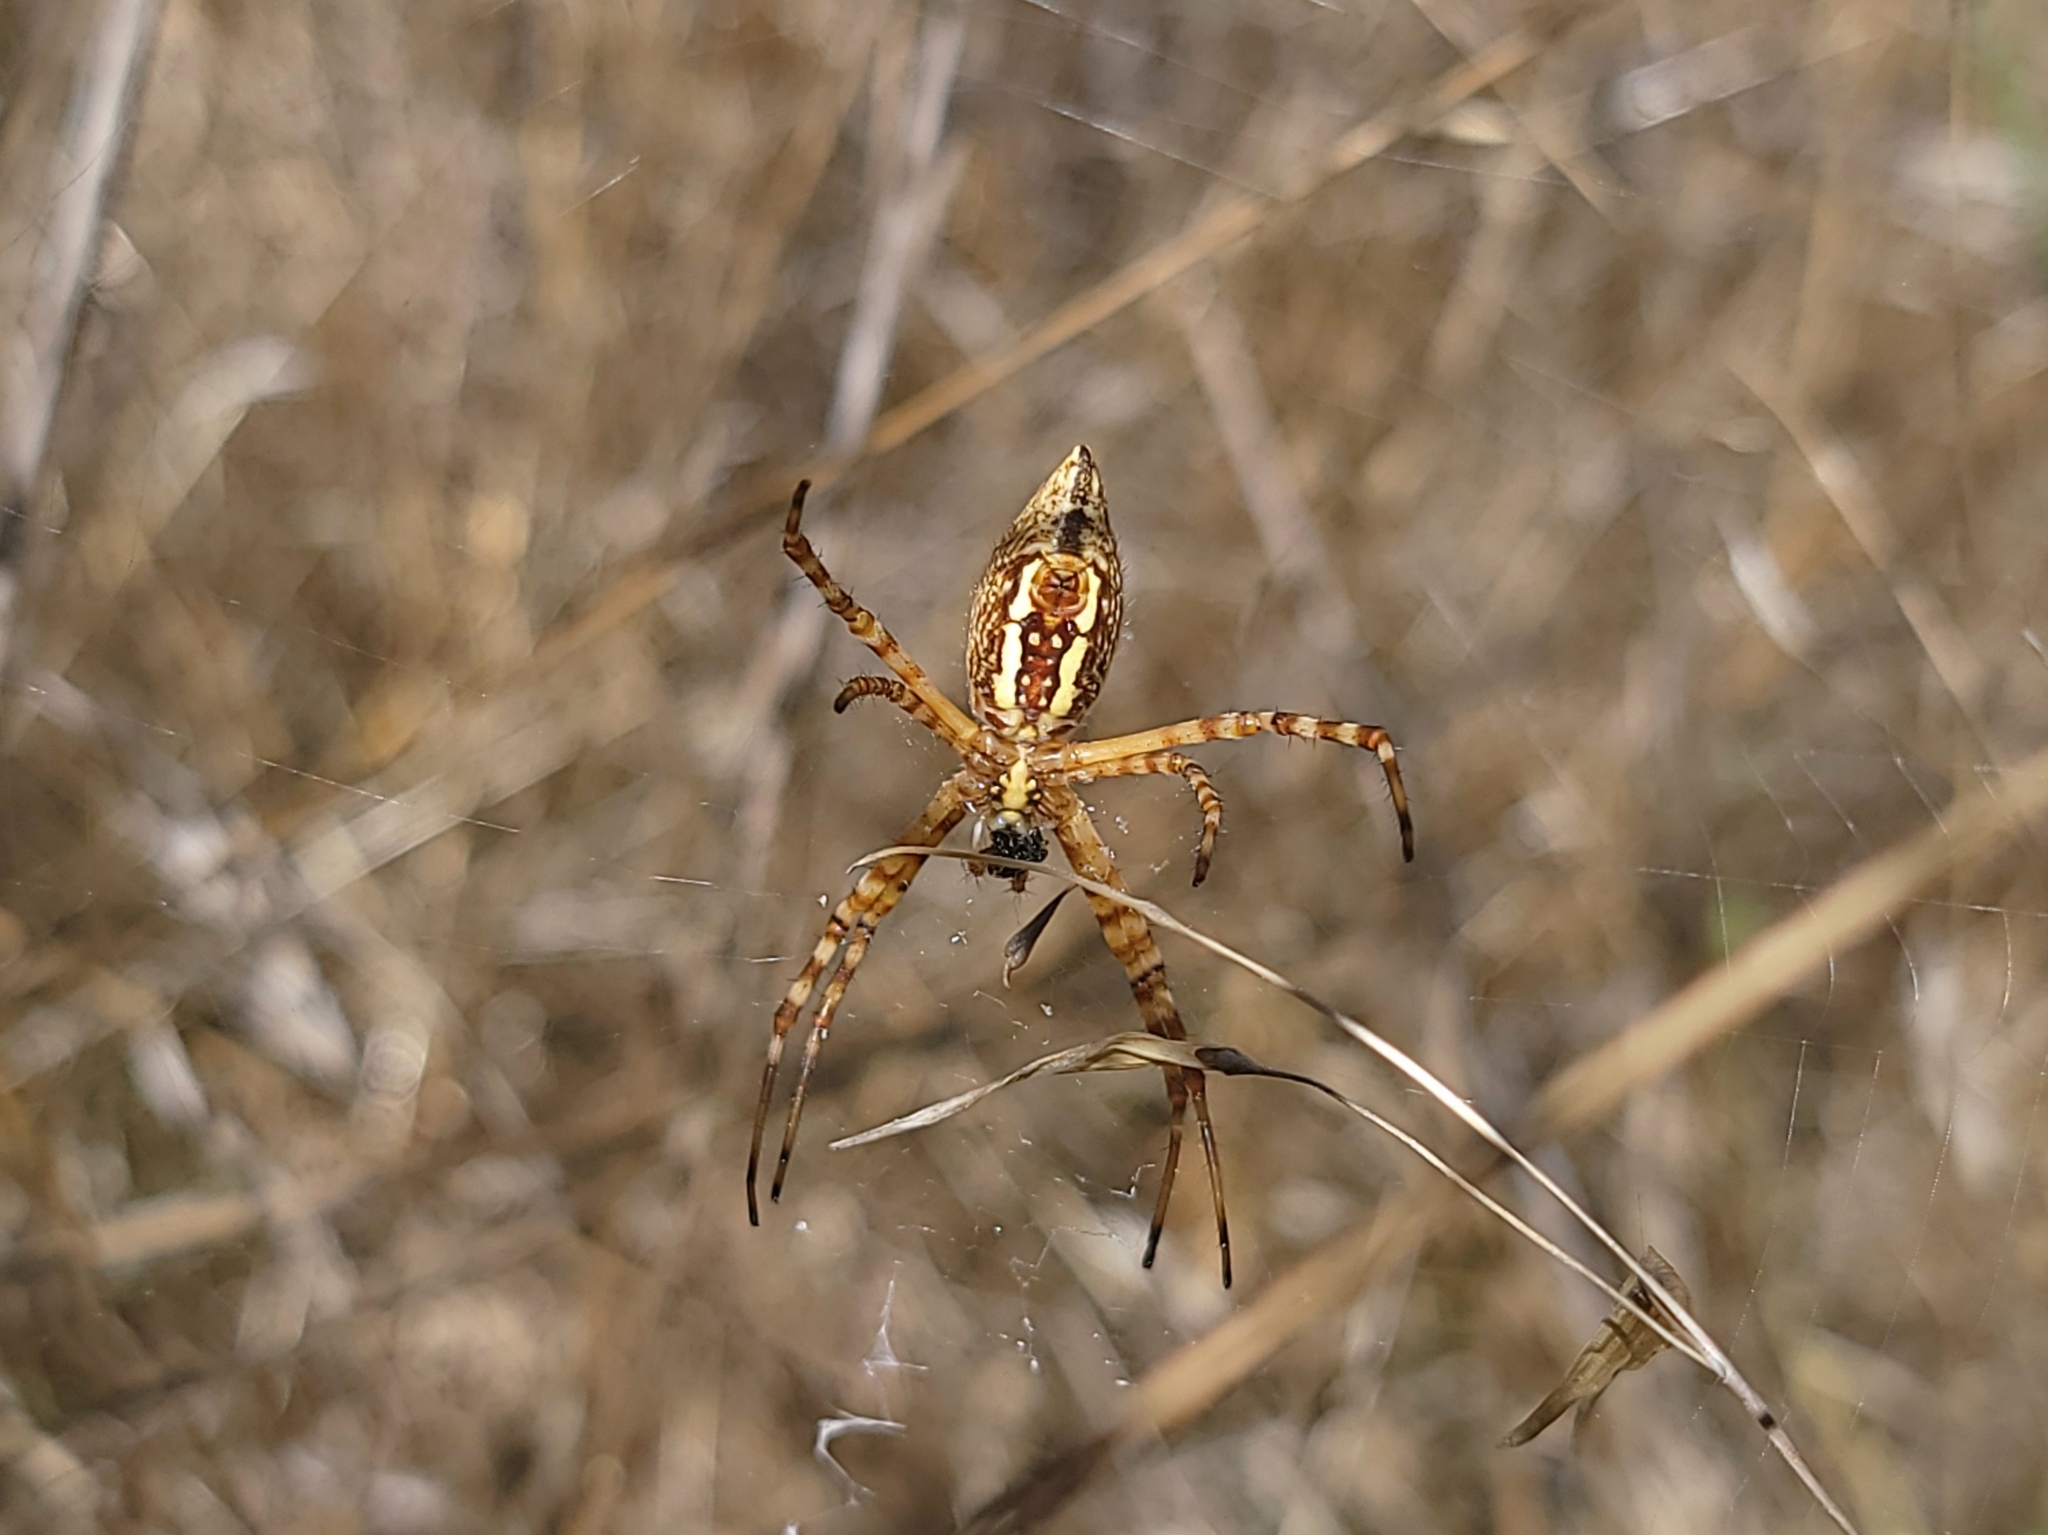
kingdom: Animalia
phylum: Arthropoda
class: Arachnida
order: Araneae
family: Araneidae
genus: Argiope
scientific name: Argiope trifasciata
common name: Banded garden spider
